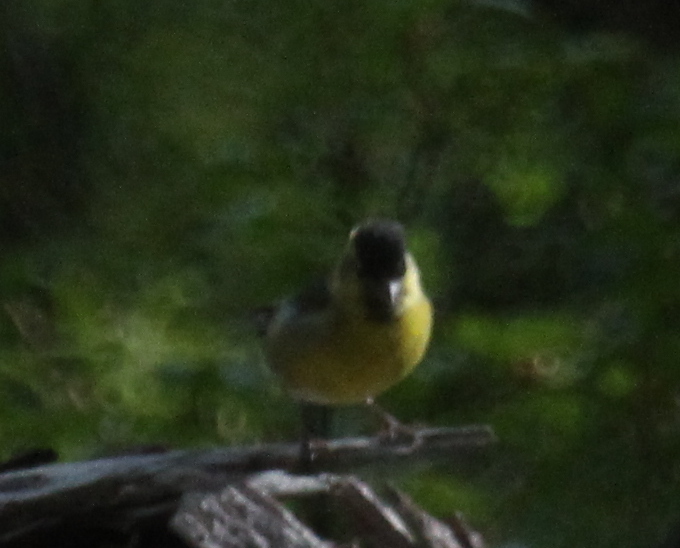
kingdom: Animalia
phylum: Chordata
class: Aves
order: Passeriformes
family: Fringillidae
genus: Spinus
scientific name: Spinus barbatus
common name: Black-chinned siskin
